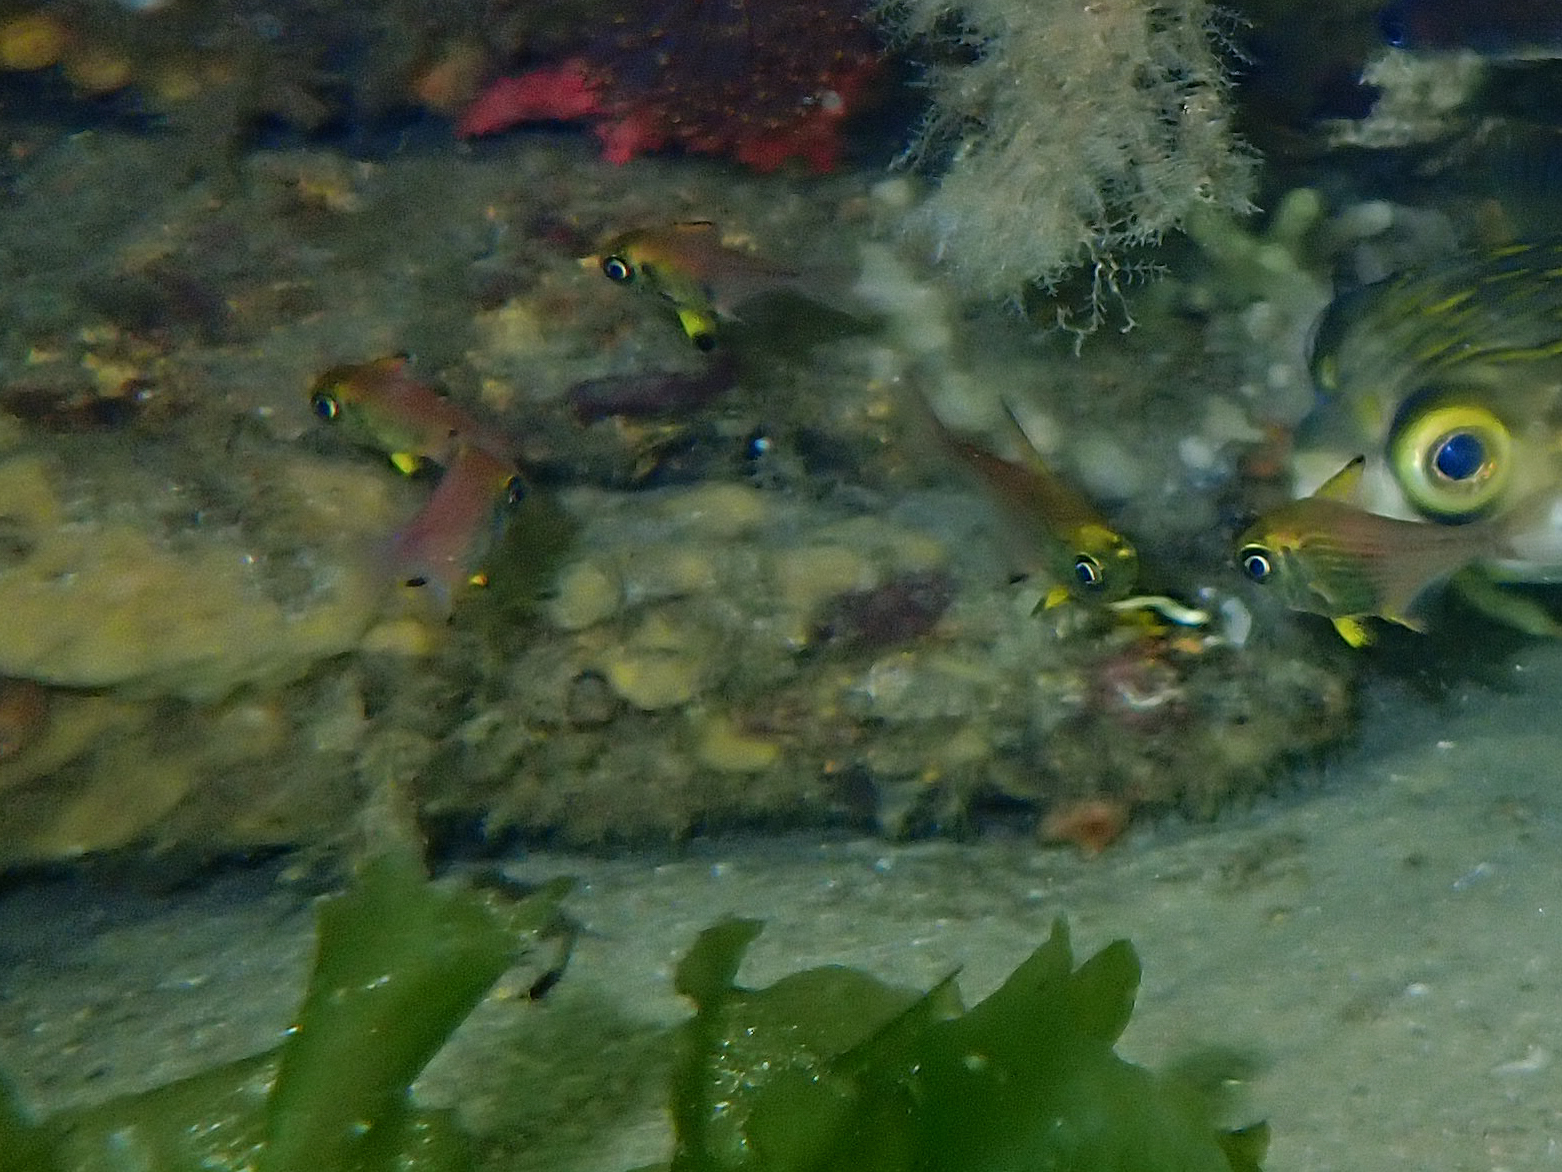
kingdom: Animalia
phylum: Chordata
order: Perciformes
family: Pempheridae
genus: Pempheris
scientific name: Pempheris multiradiata
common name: Big-scaled bullseye
